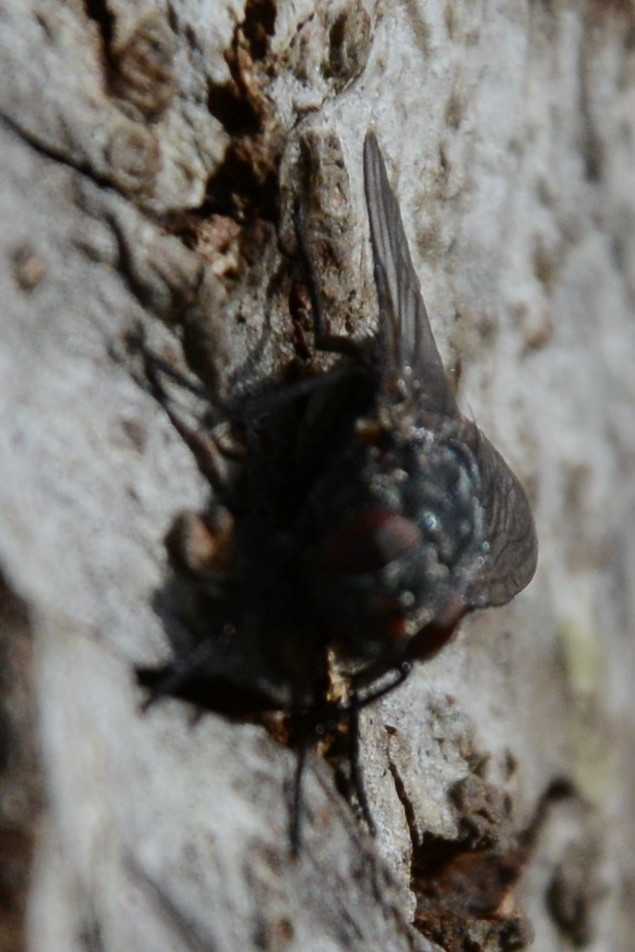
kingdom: Animalia
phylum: Arthropoda
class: Insecta
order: Diptera
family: Muscidae
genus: Muscina
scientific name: Muscina prolapsa
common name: Muscoid fly
